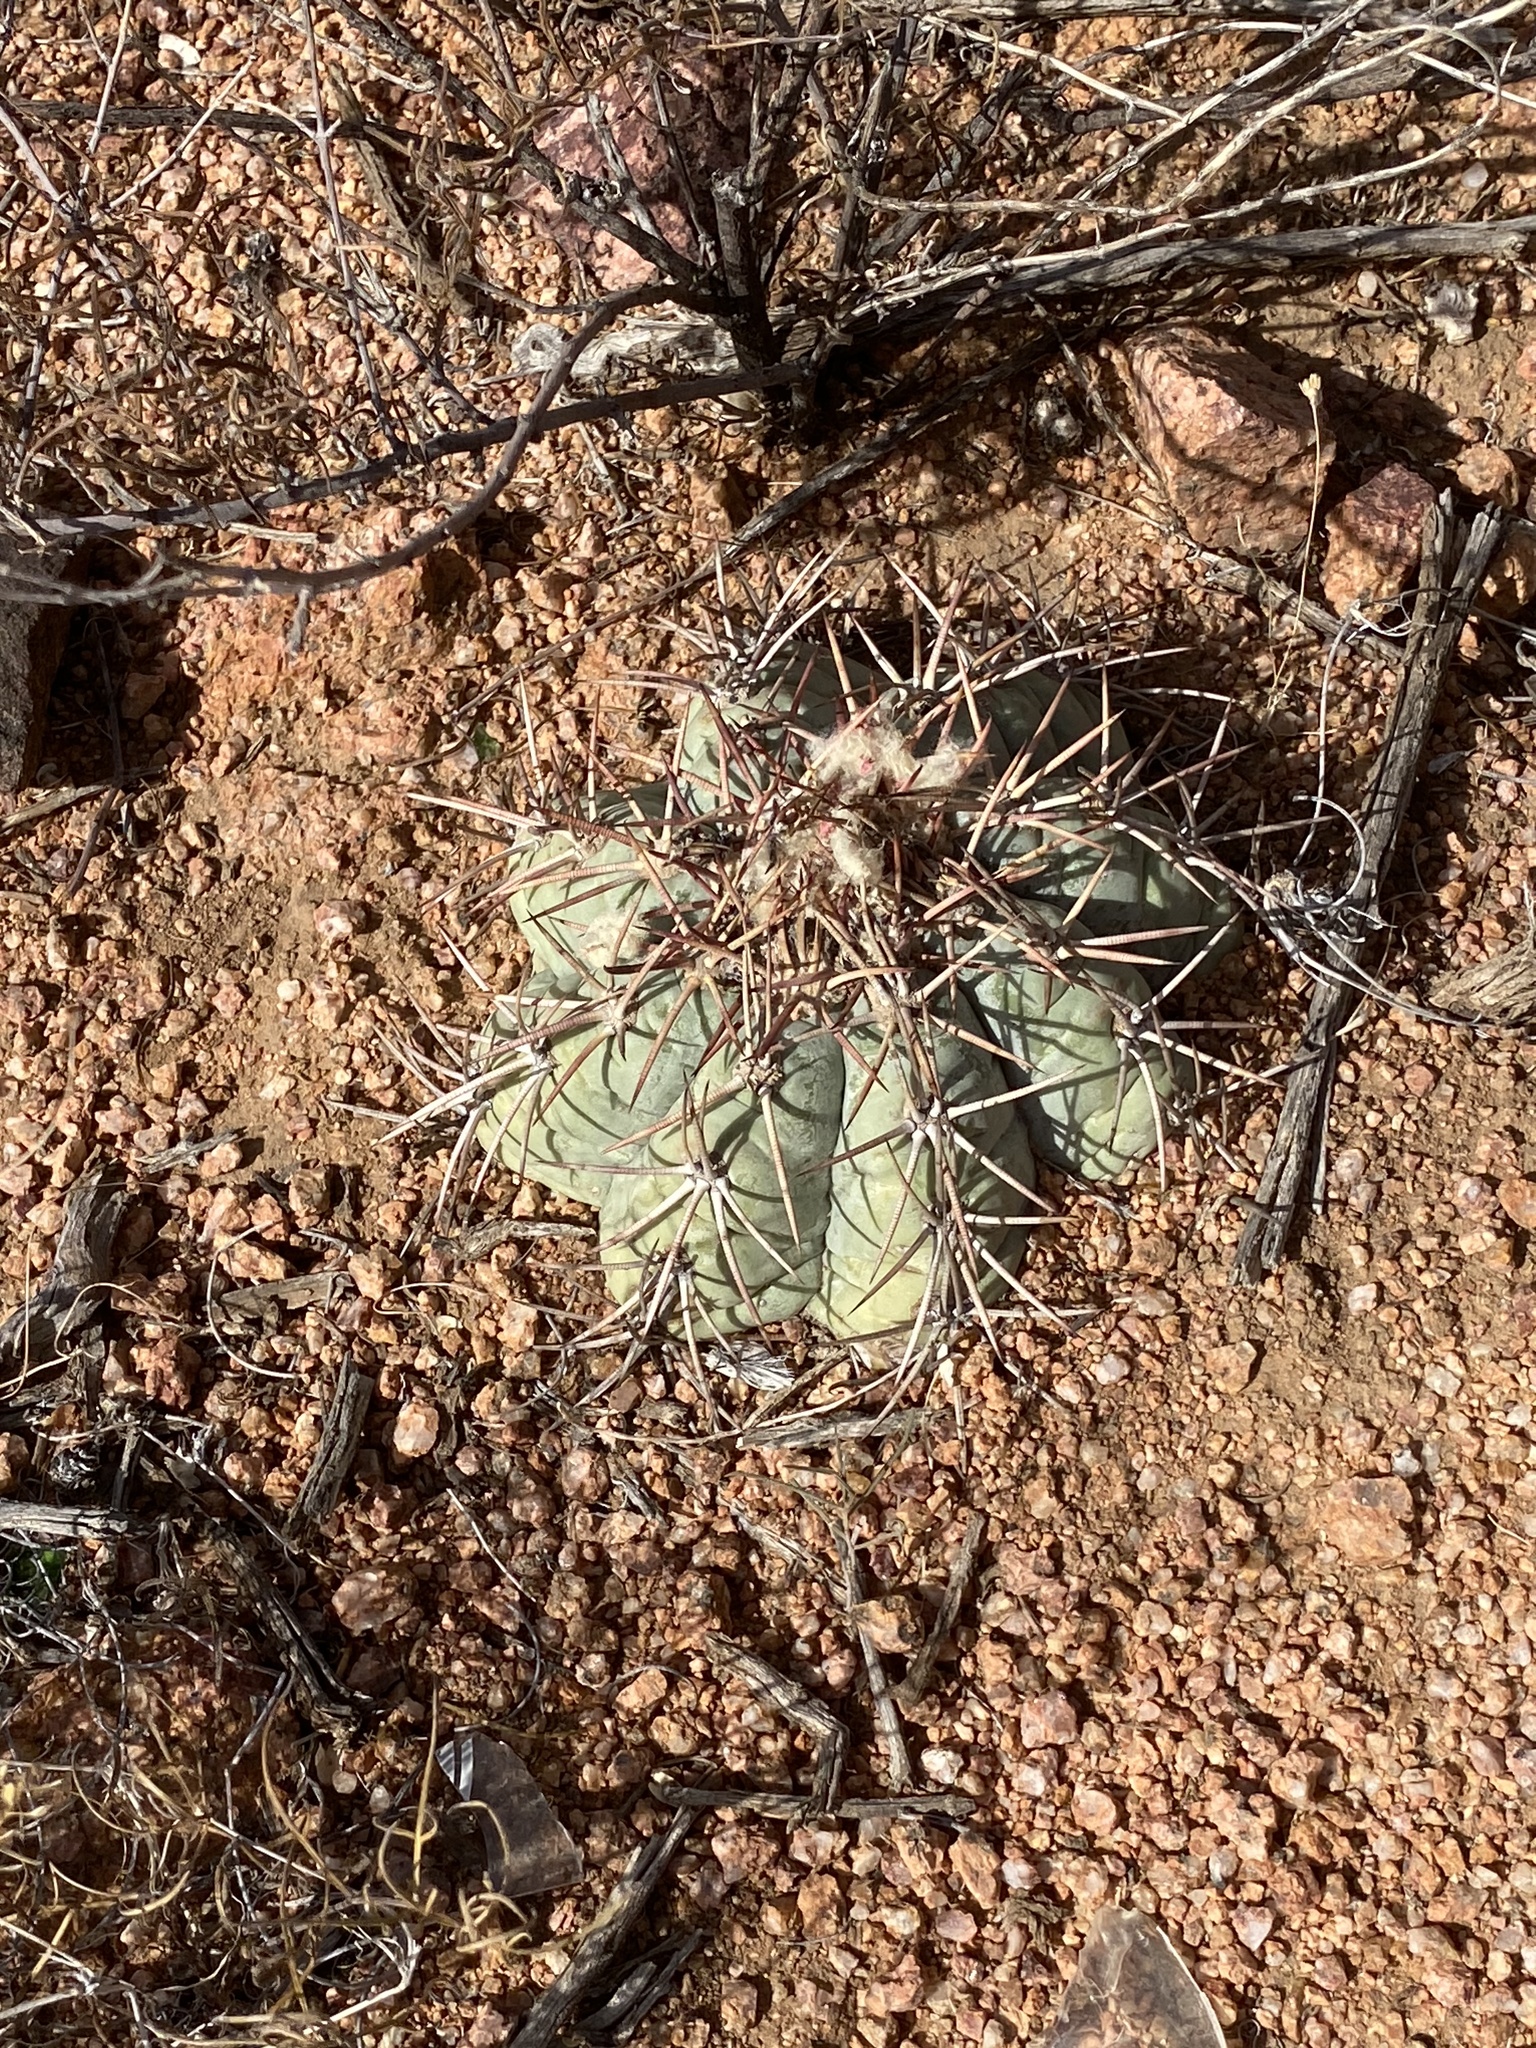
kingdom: Plantae
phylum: Tracheophyta
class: Magnoliopsida
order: Caryophyllales
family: Cactaceae
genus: Echinocactus
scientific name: Echinocactus horizonthalonius
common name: Devilshead
